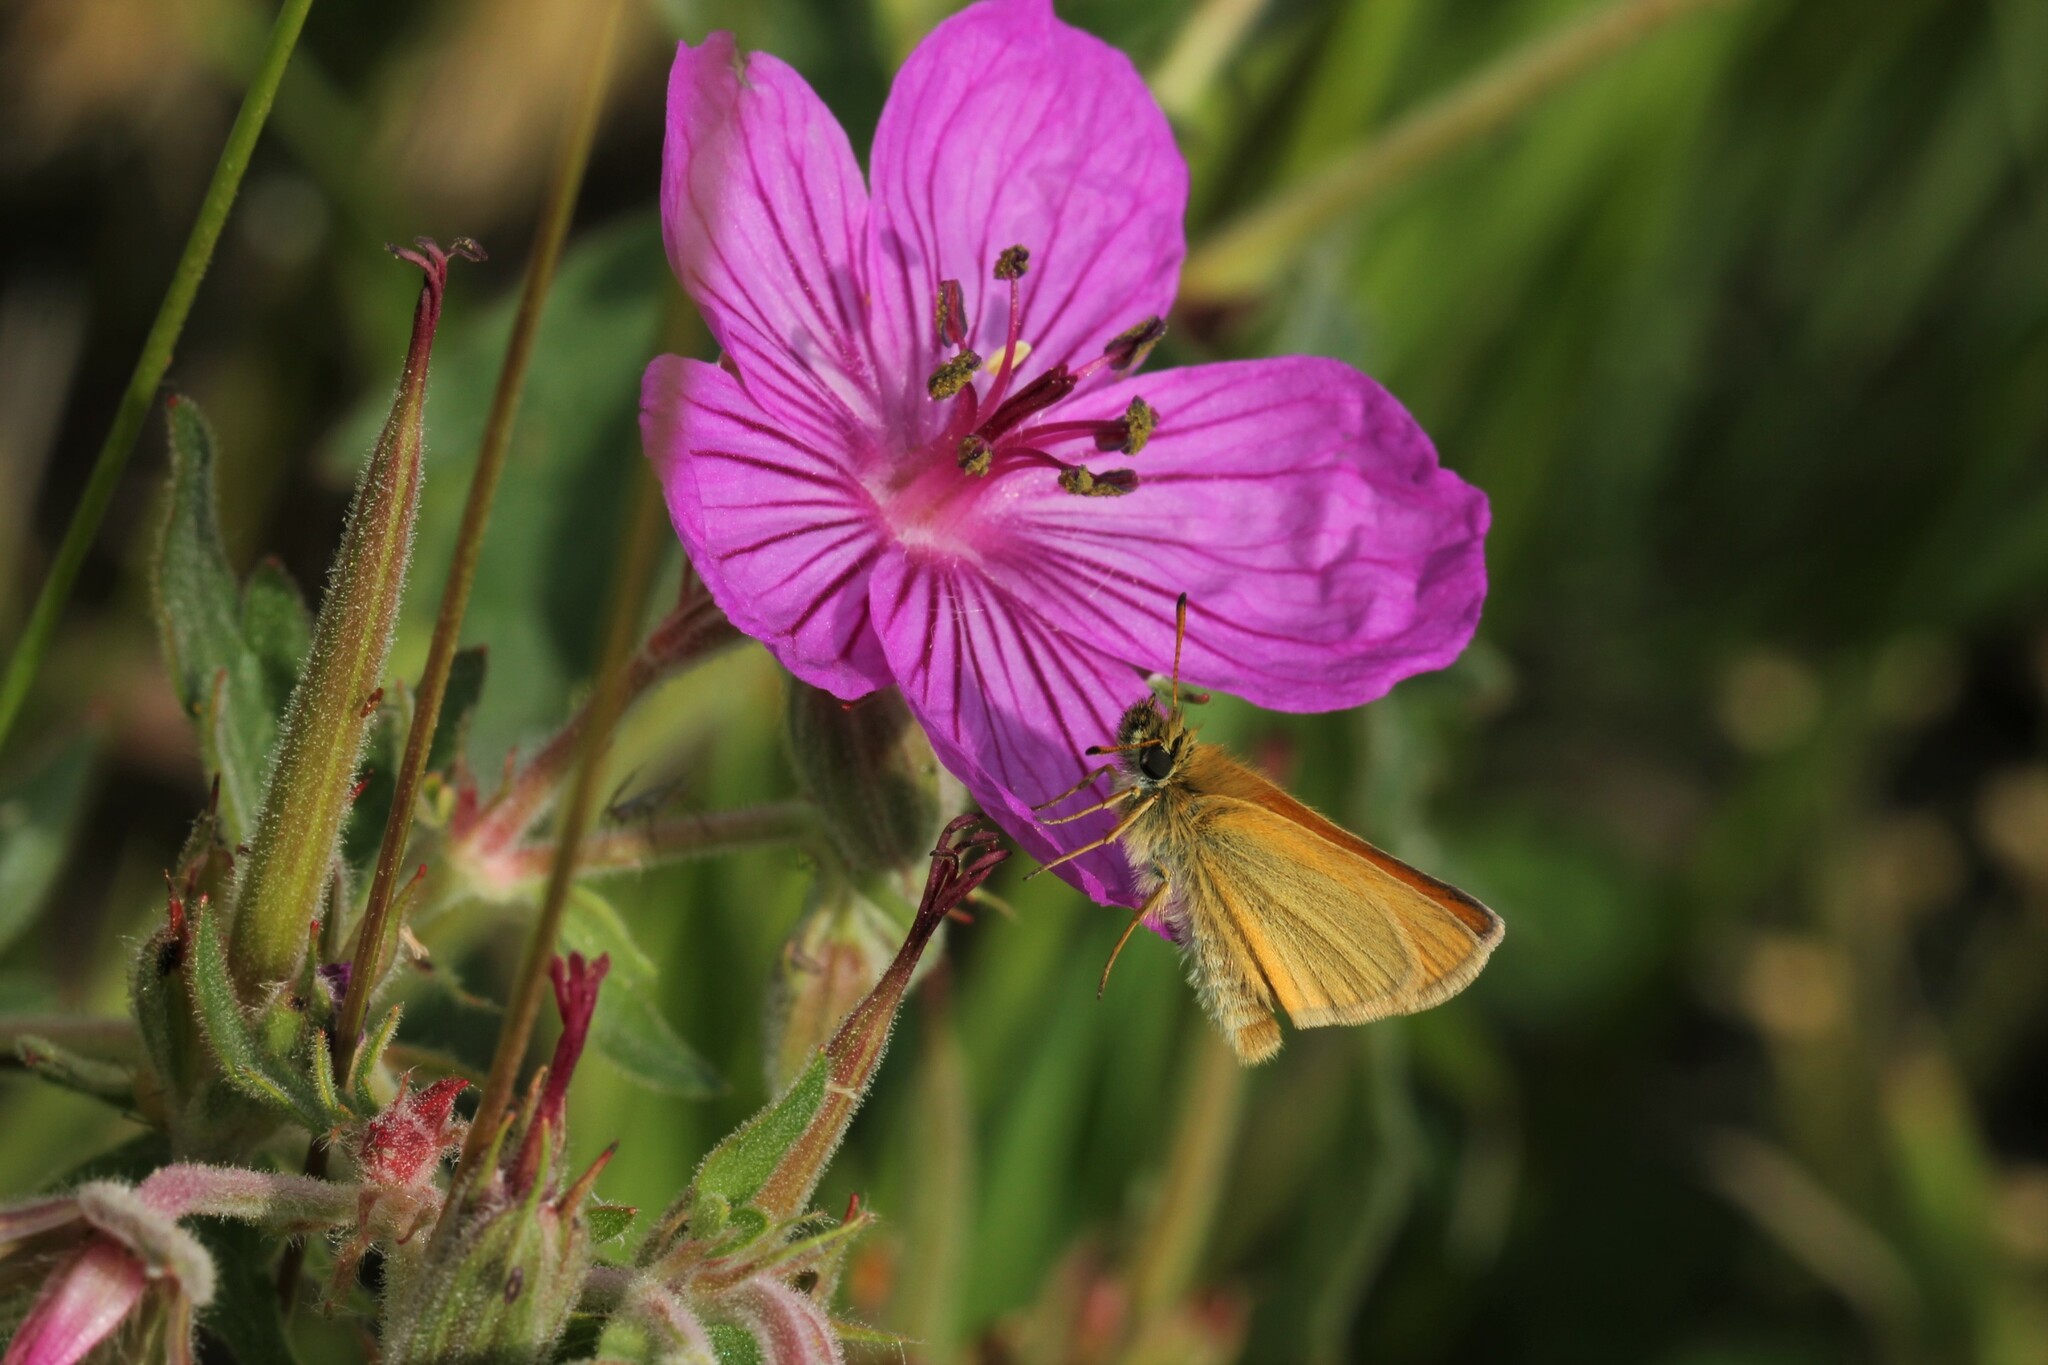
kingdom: Animalia
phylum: Arthropoda
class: Insecta
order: Lepidoptera
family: Hesperiidae
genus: Thymelicus
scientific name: Thymelicus lineola
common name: Essex skipper
